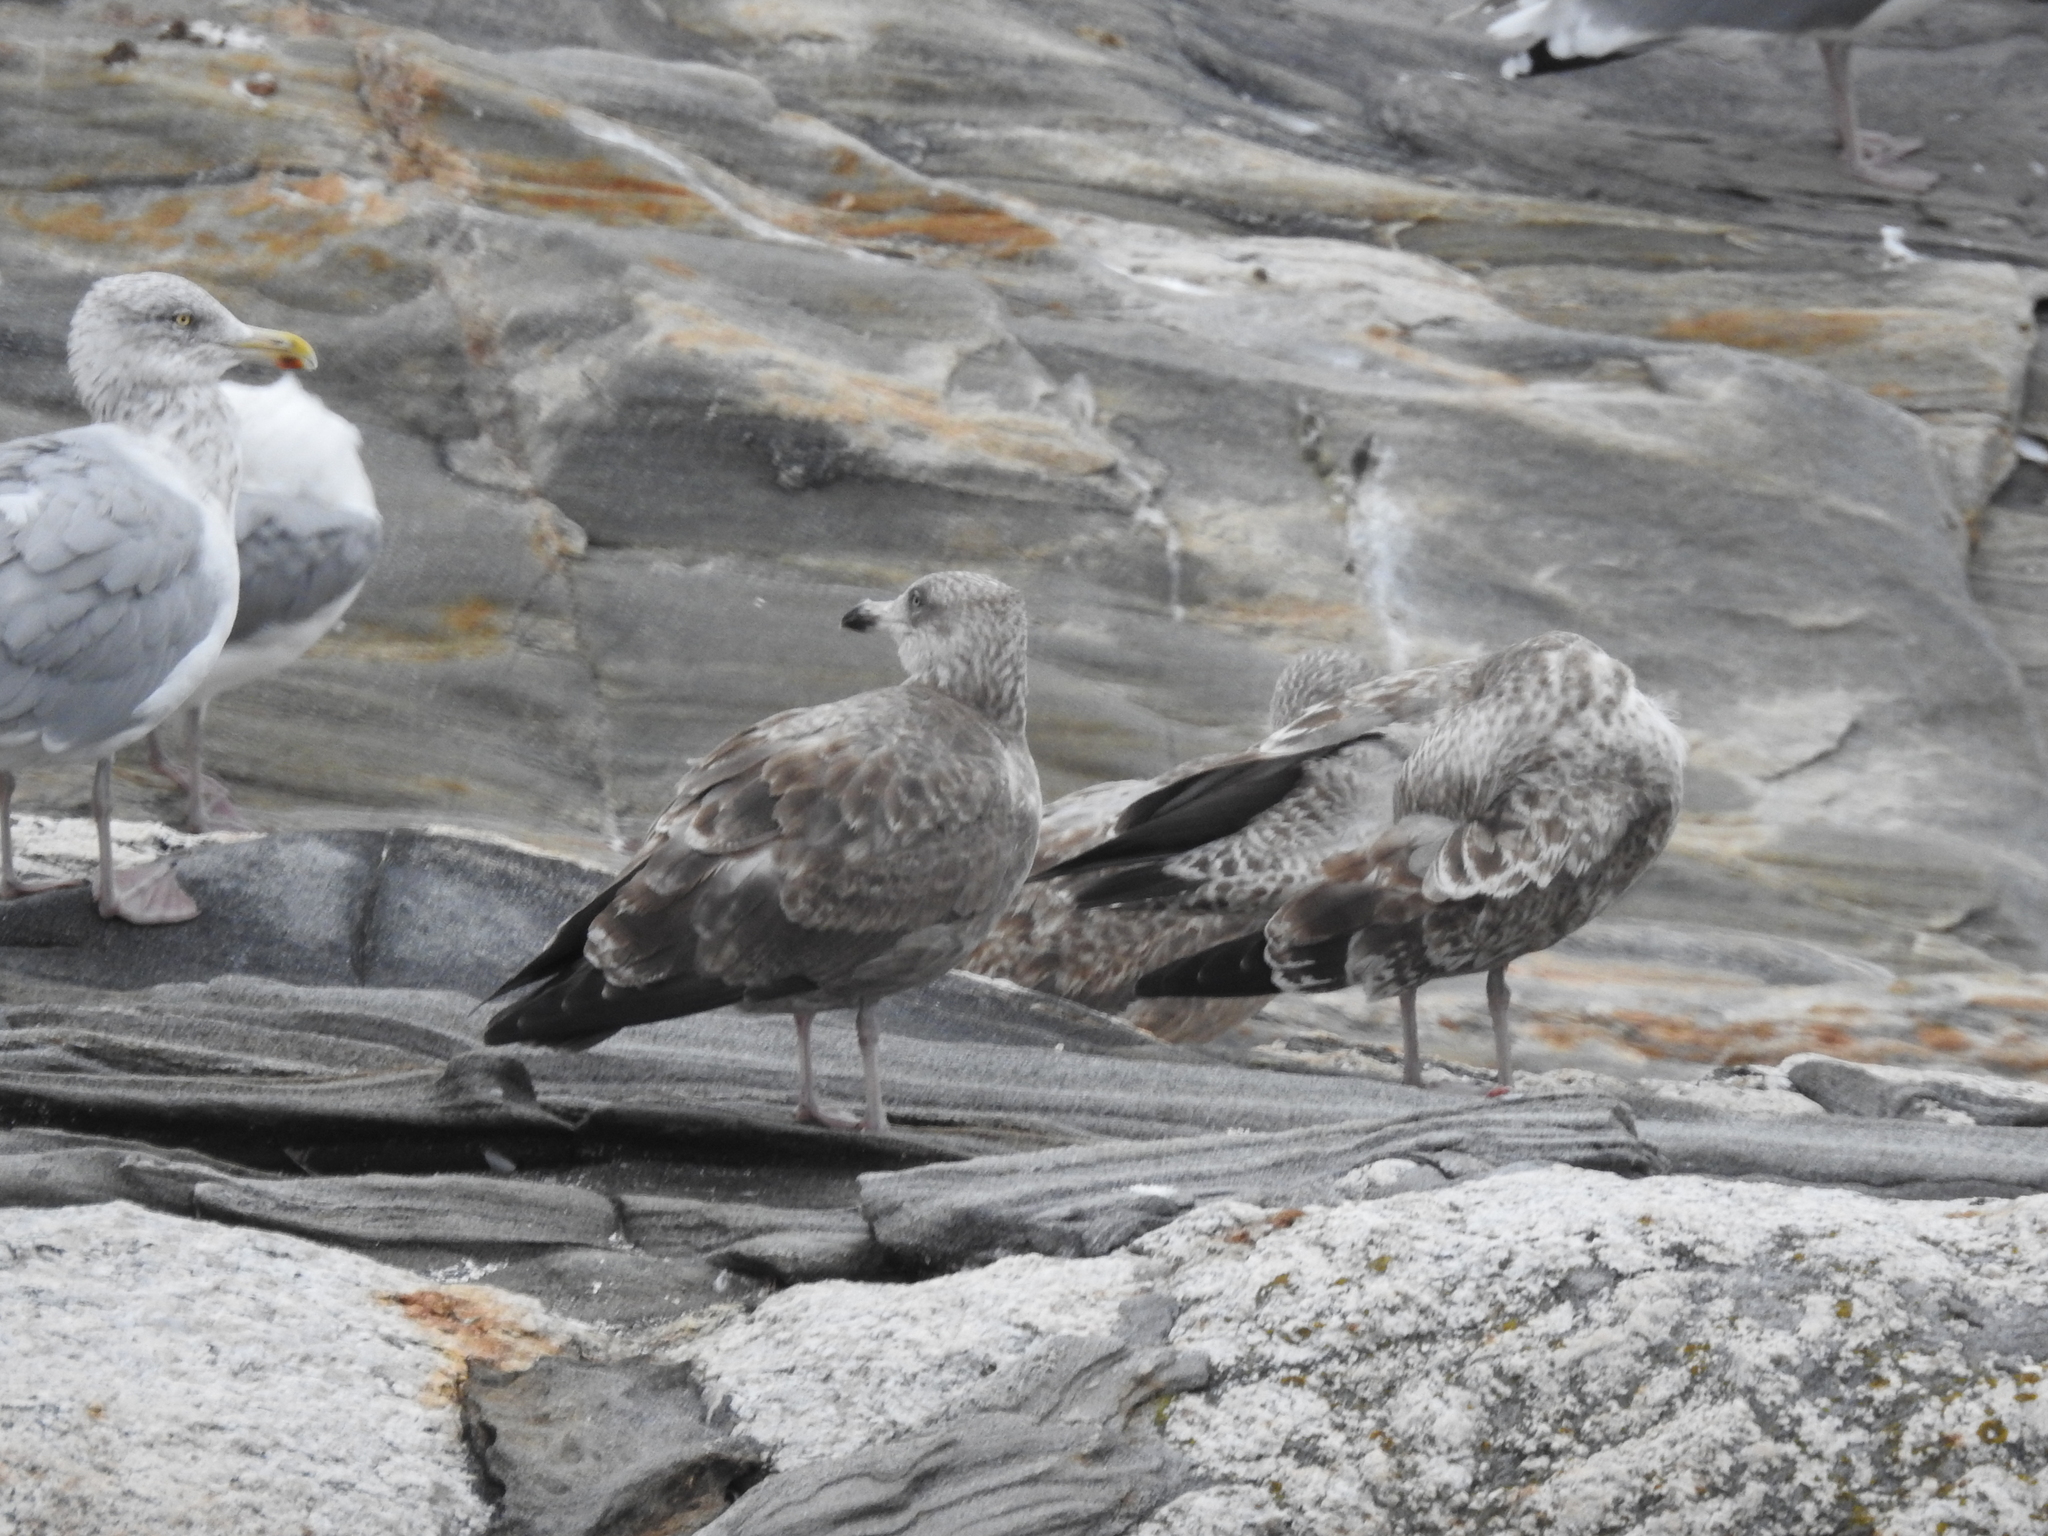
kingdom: Animalia
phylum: Chordata
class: Aves
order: Charadriiformes
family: Laridae
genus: Larus
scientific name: Larus argentatus
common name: Herring gull
